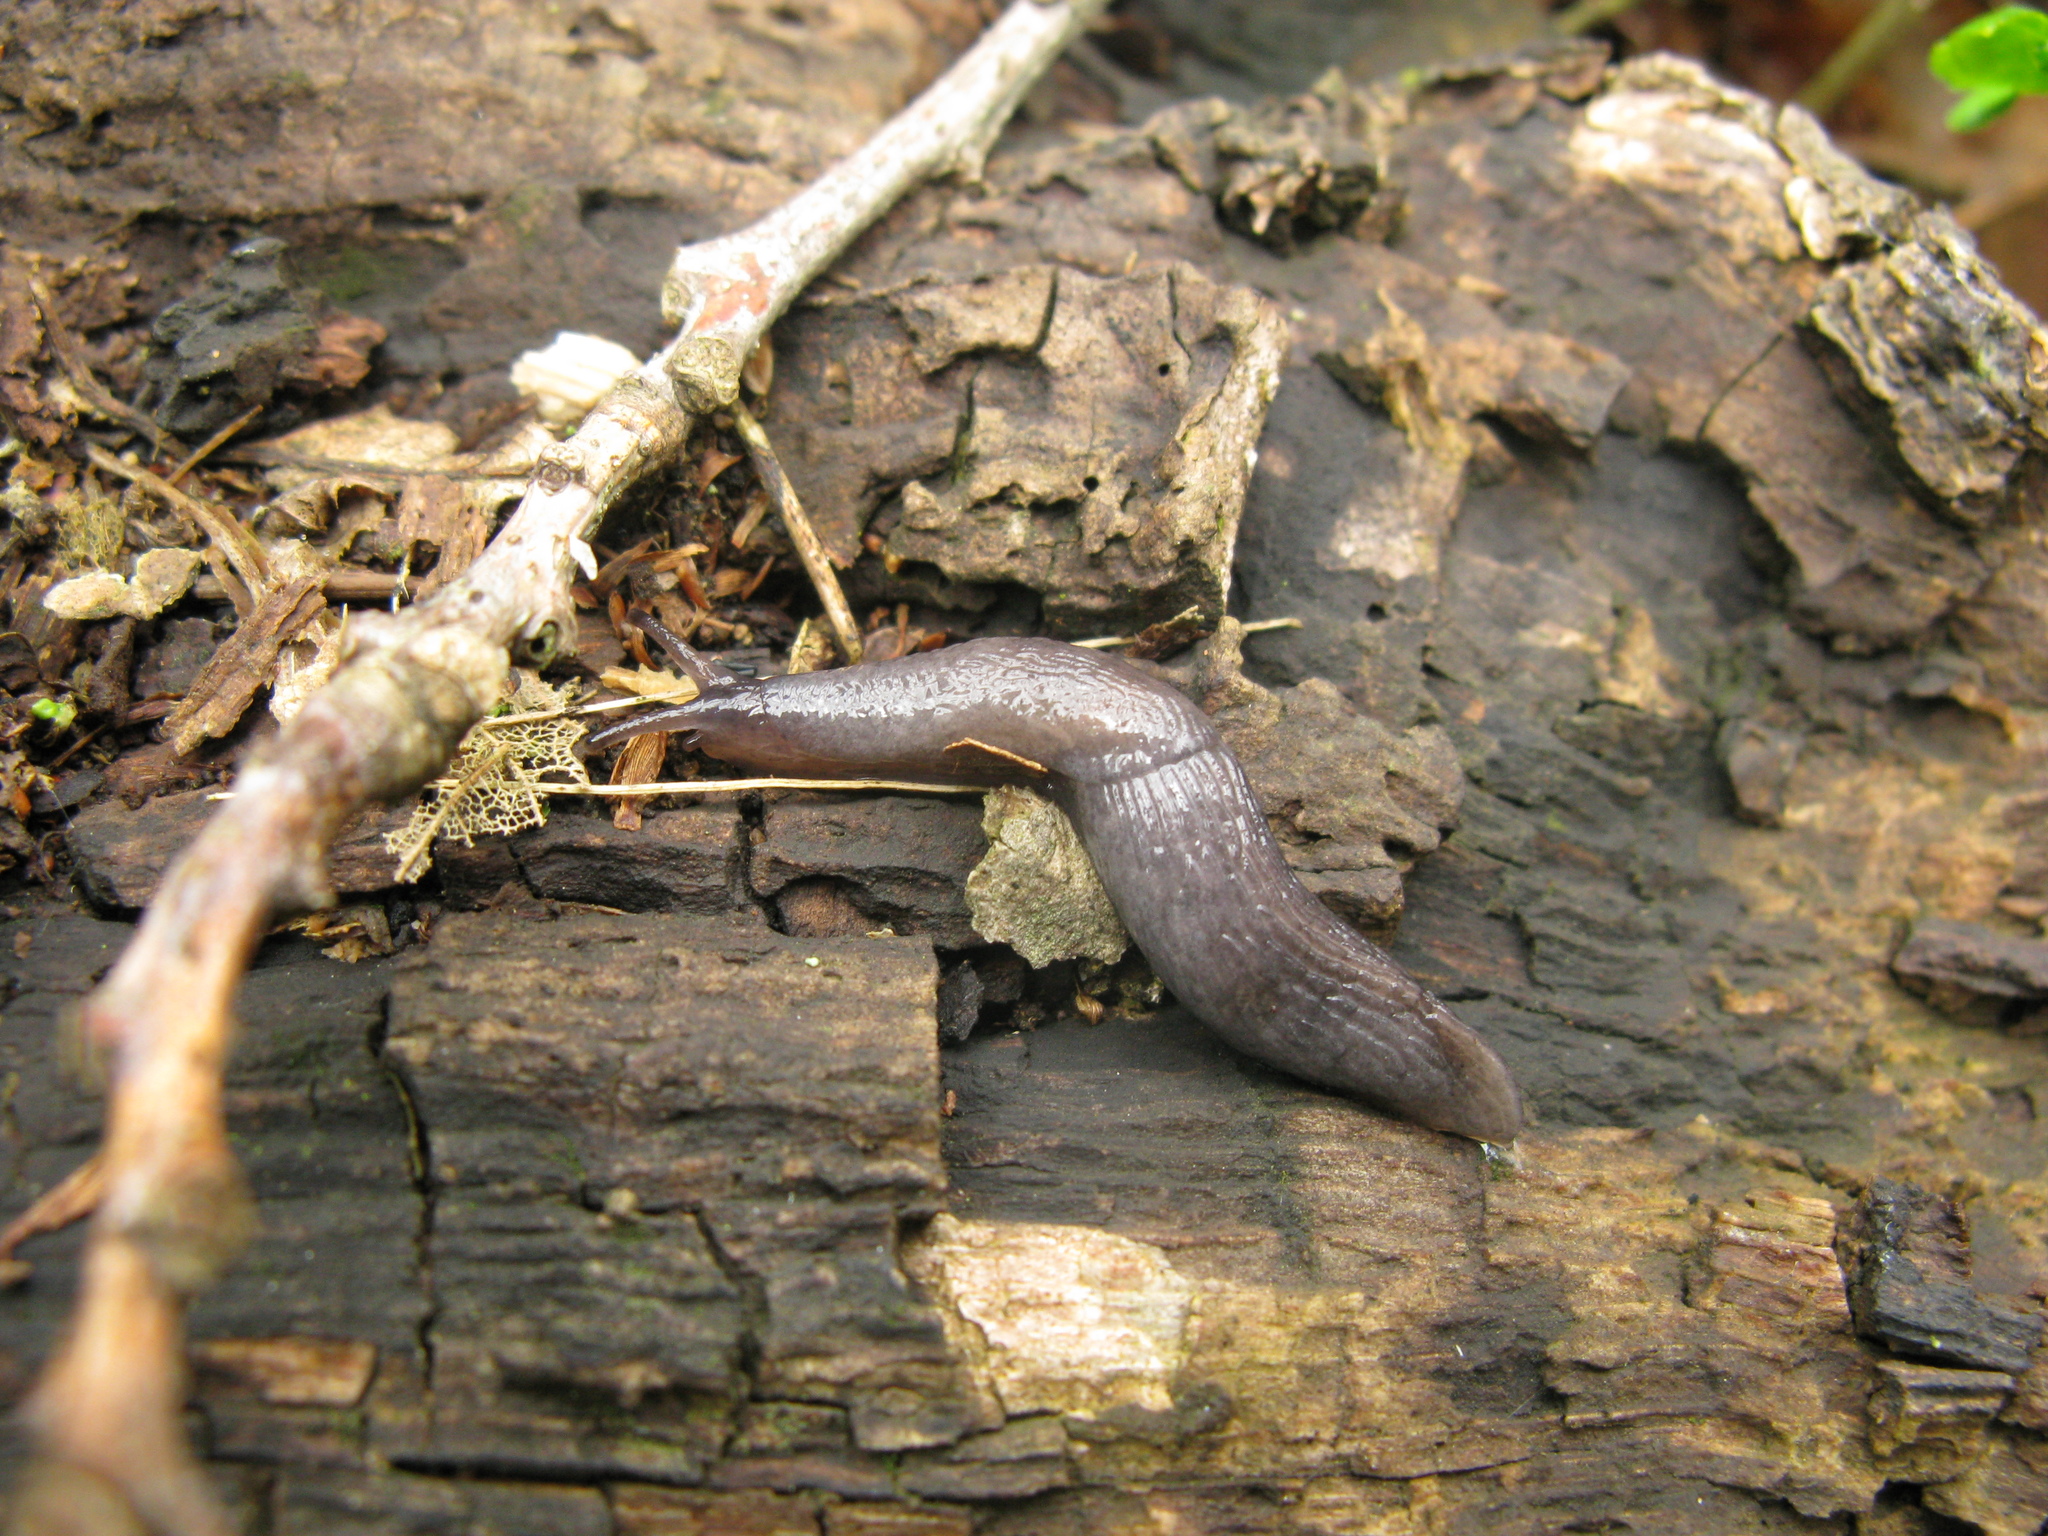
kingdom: Animalia
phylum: Mollusca
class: Gastropoda
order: Stylommatophora
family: Agriolimacidae
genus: Deroceras
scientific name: Deroceras tauricum
